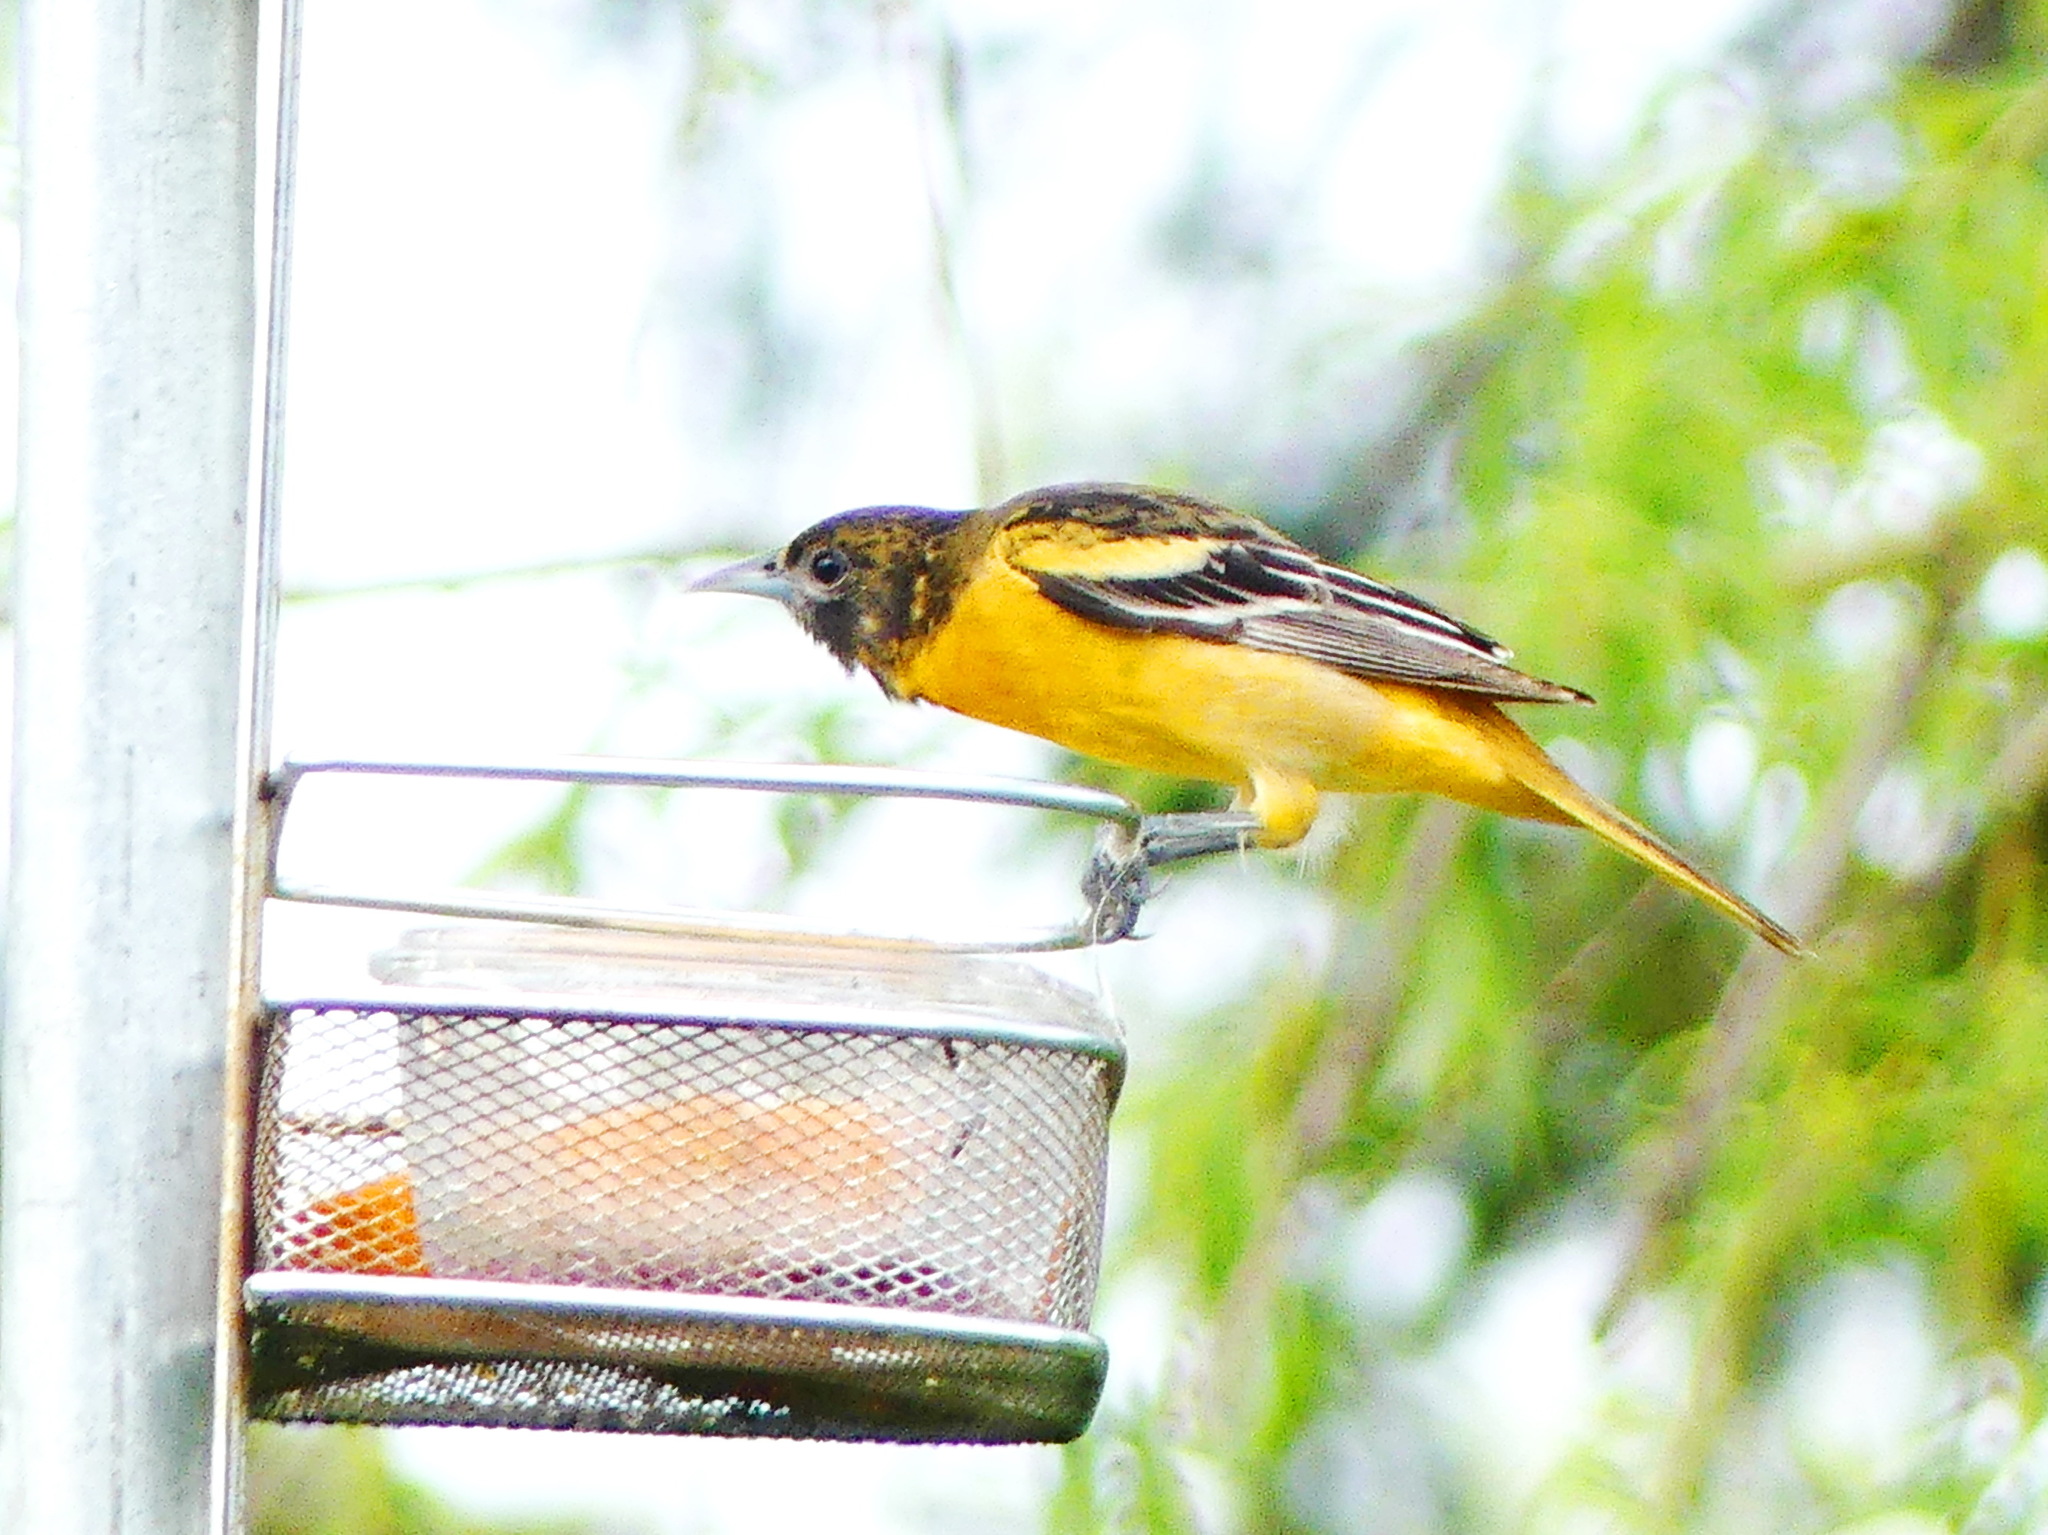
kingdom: Animalia
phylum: Chordata
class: Aves
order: Passeriformes
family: Icteridae
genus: Icterus
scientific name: Icterus galbula
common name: Baltimore oriole
